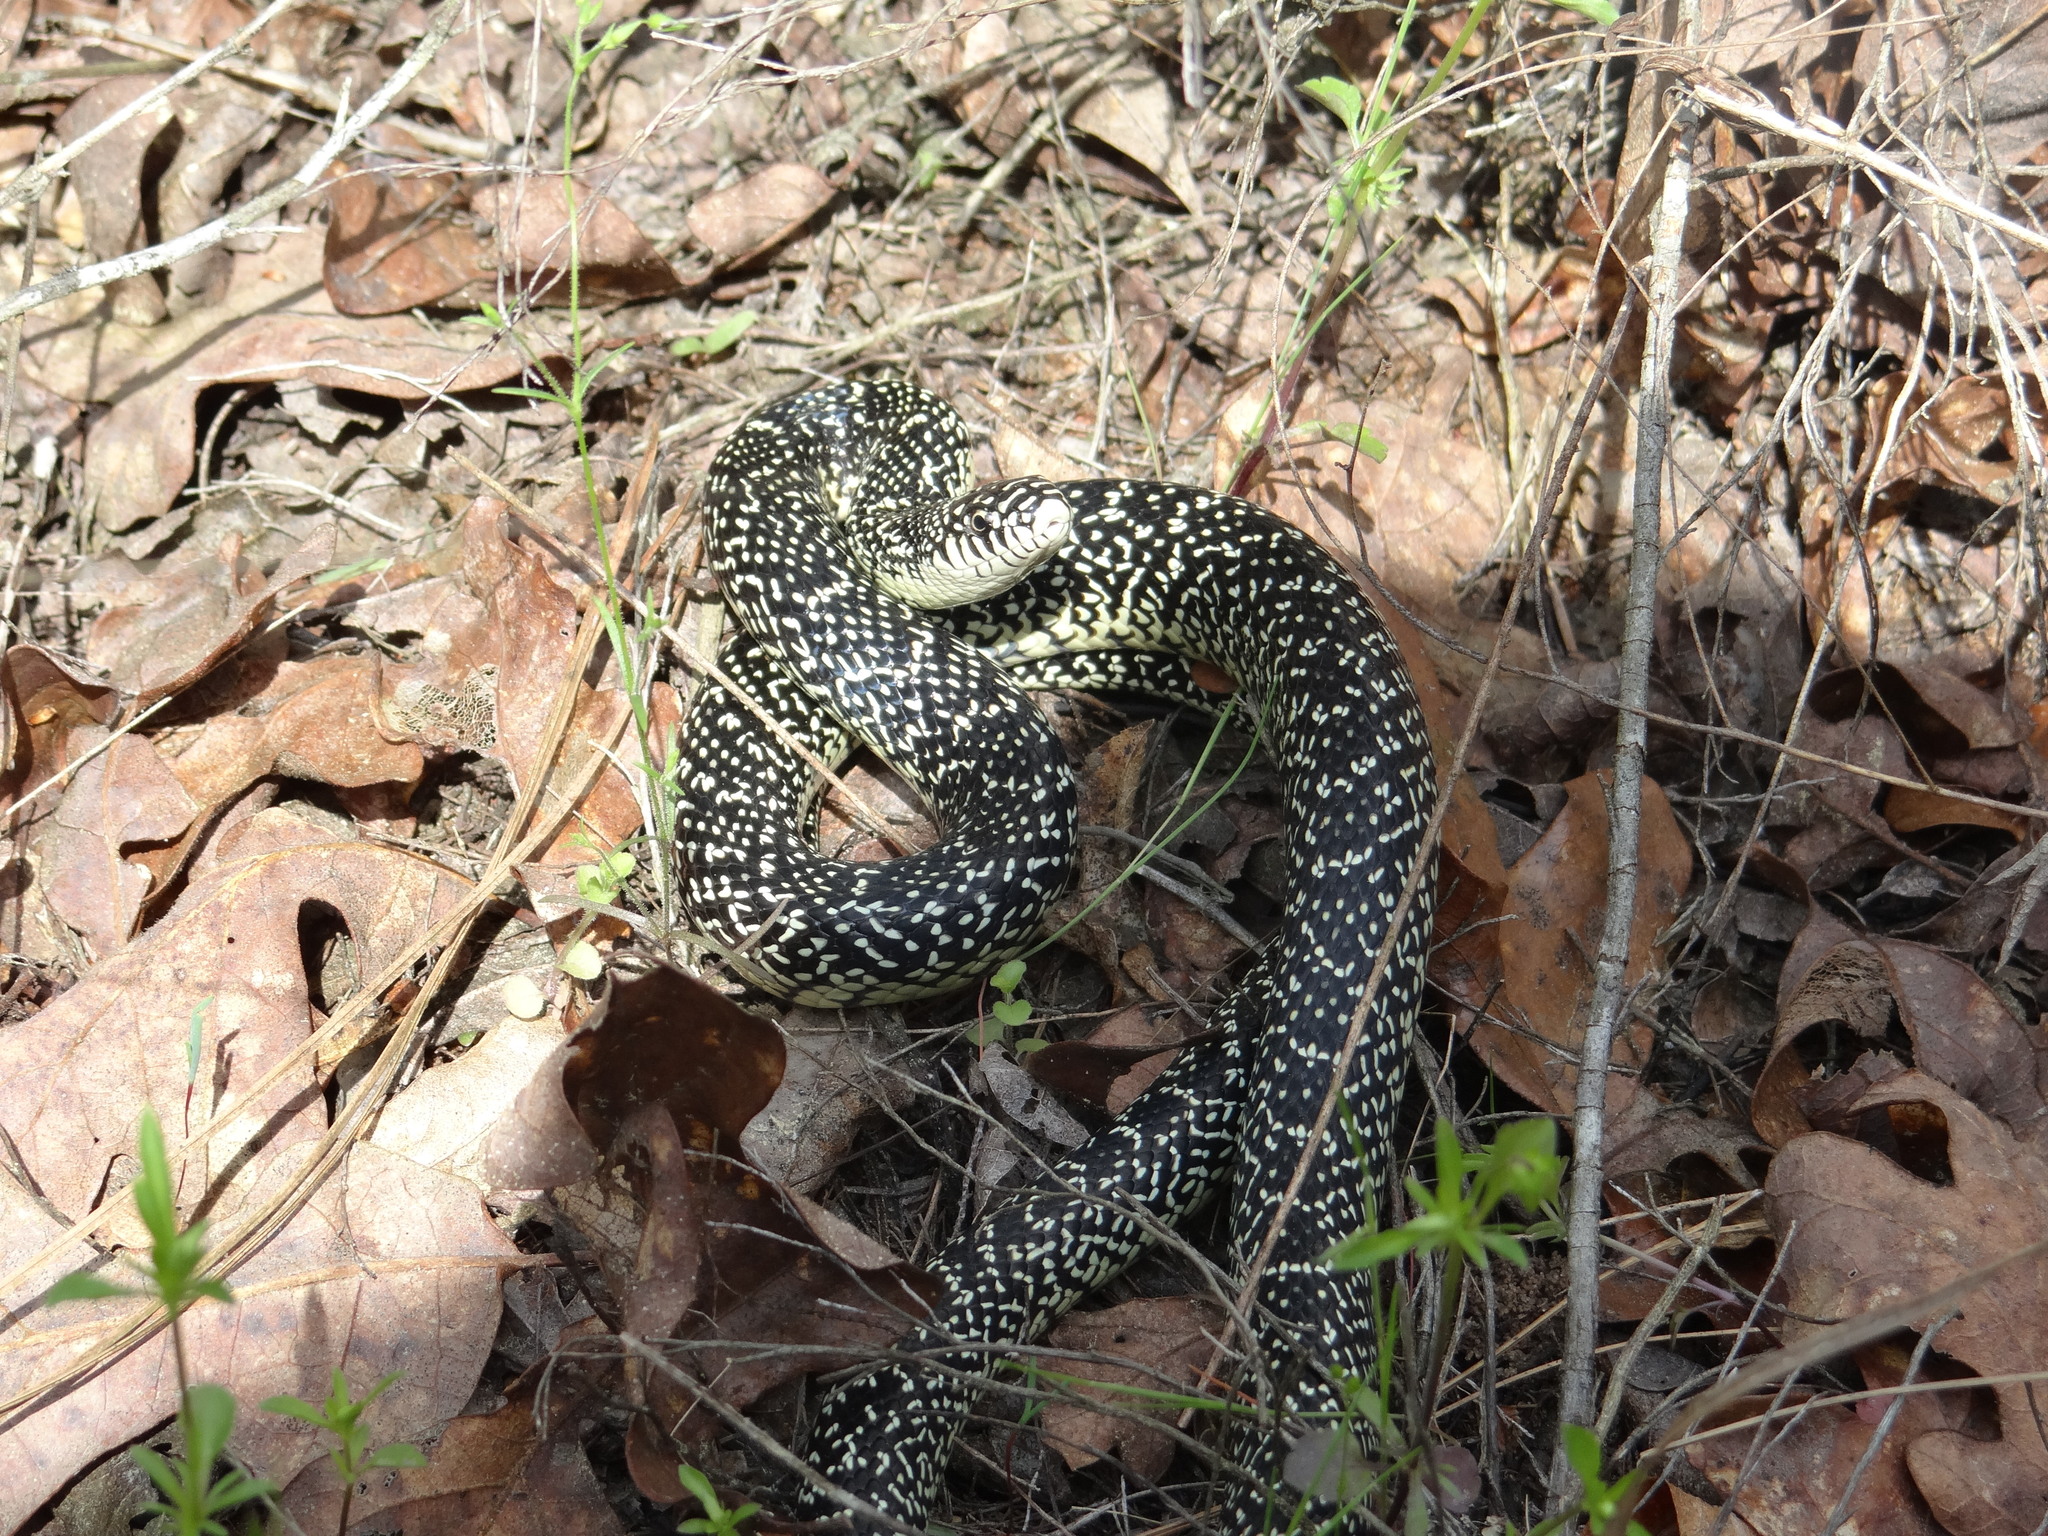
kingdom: Animalia
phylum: Chordata
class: Squamata
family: Colubridae
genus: Lampropeltis
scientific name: Lampropeltis holbrooki
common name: Speckled kingsnake
